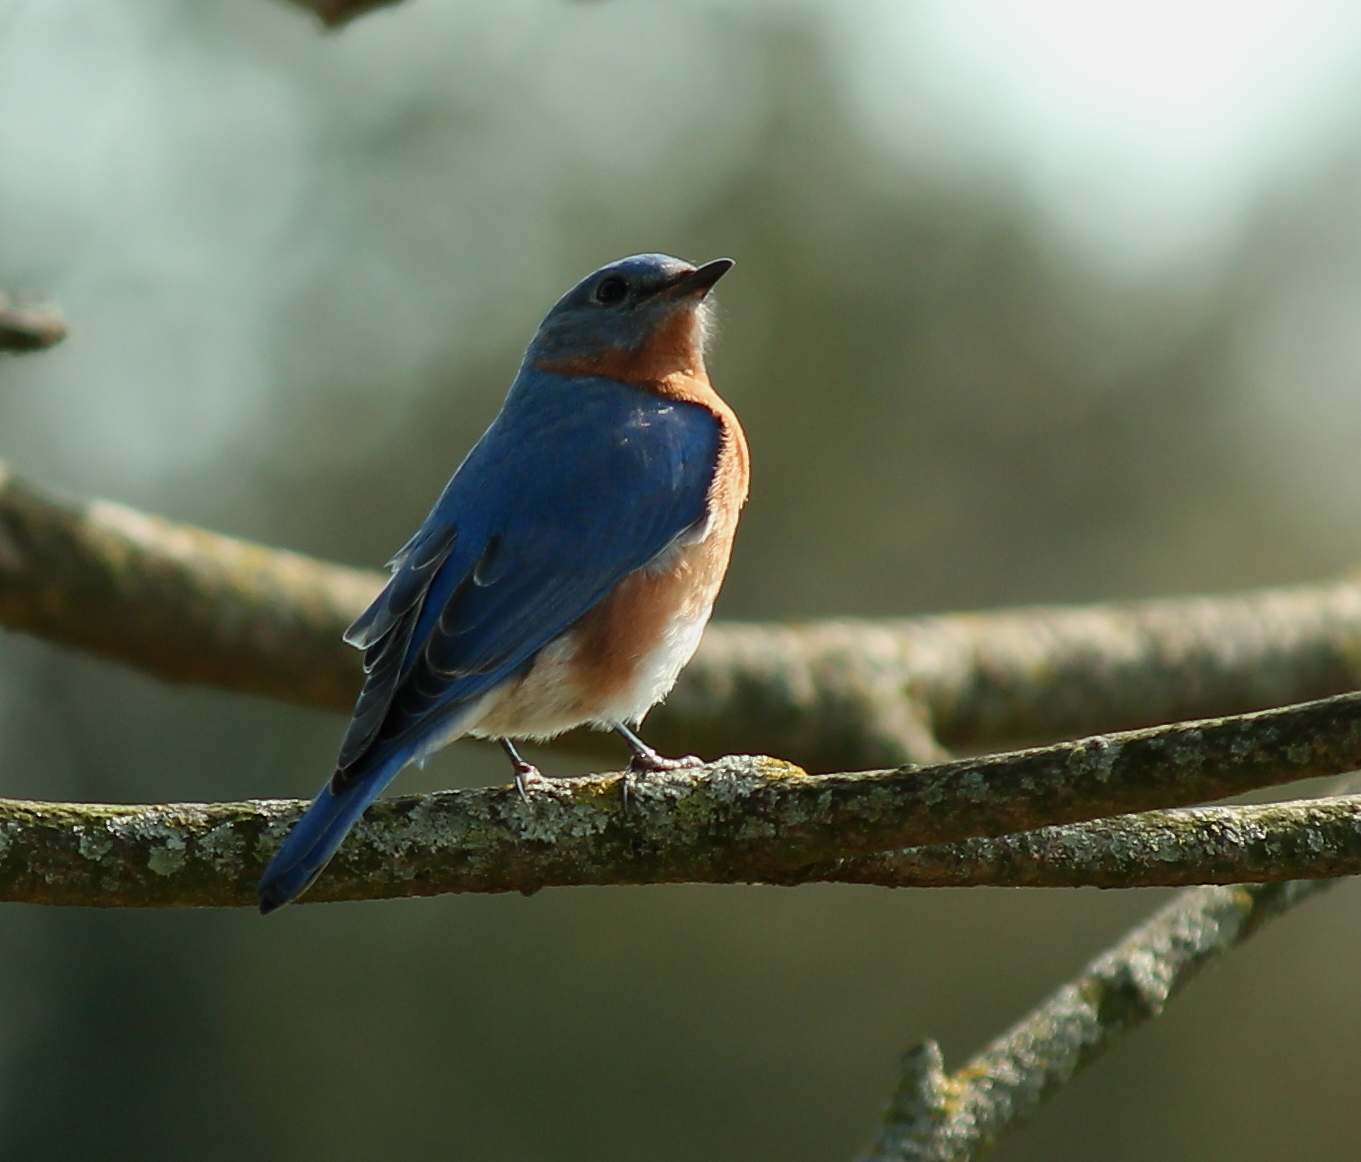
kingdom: Animalia
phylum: Chordata
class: Aves
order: Passeriformes
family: Turdidae
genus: Sialia
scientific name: Sialia sialis
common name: Eastern bluebird
